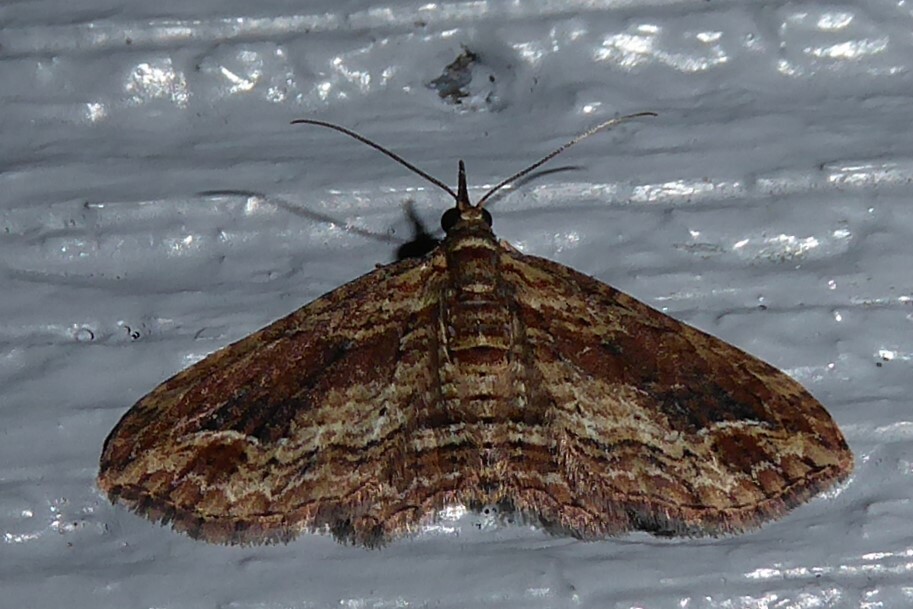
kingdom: Animalia
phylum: Arthropoda
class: Insecta
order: Lepidoptera
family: Geometridae
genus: Chloroclystis
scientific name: Chloroclystis filata
